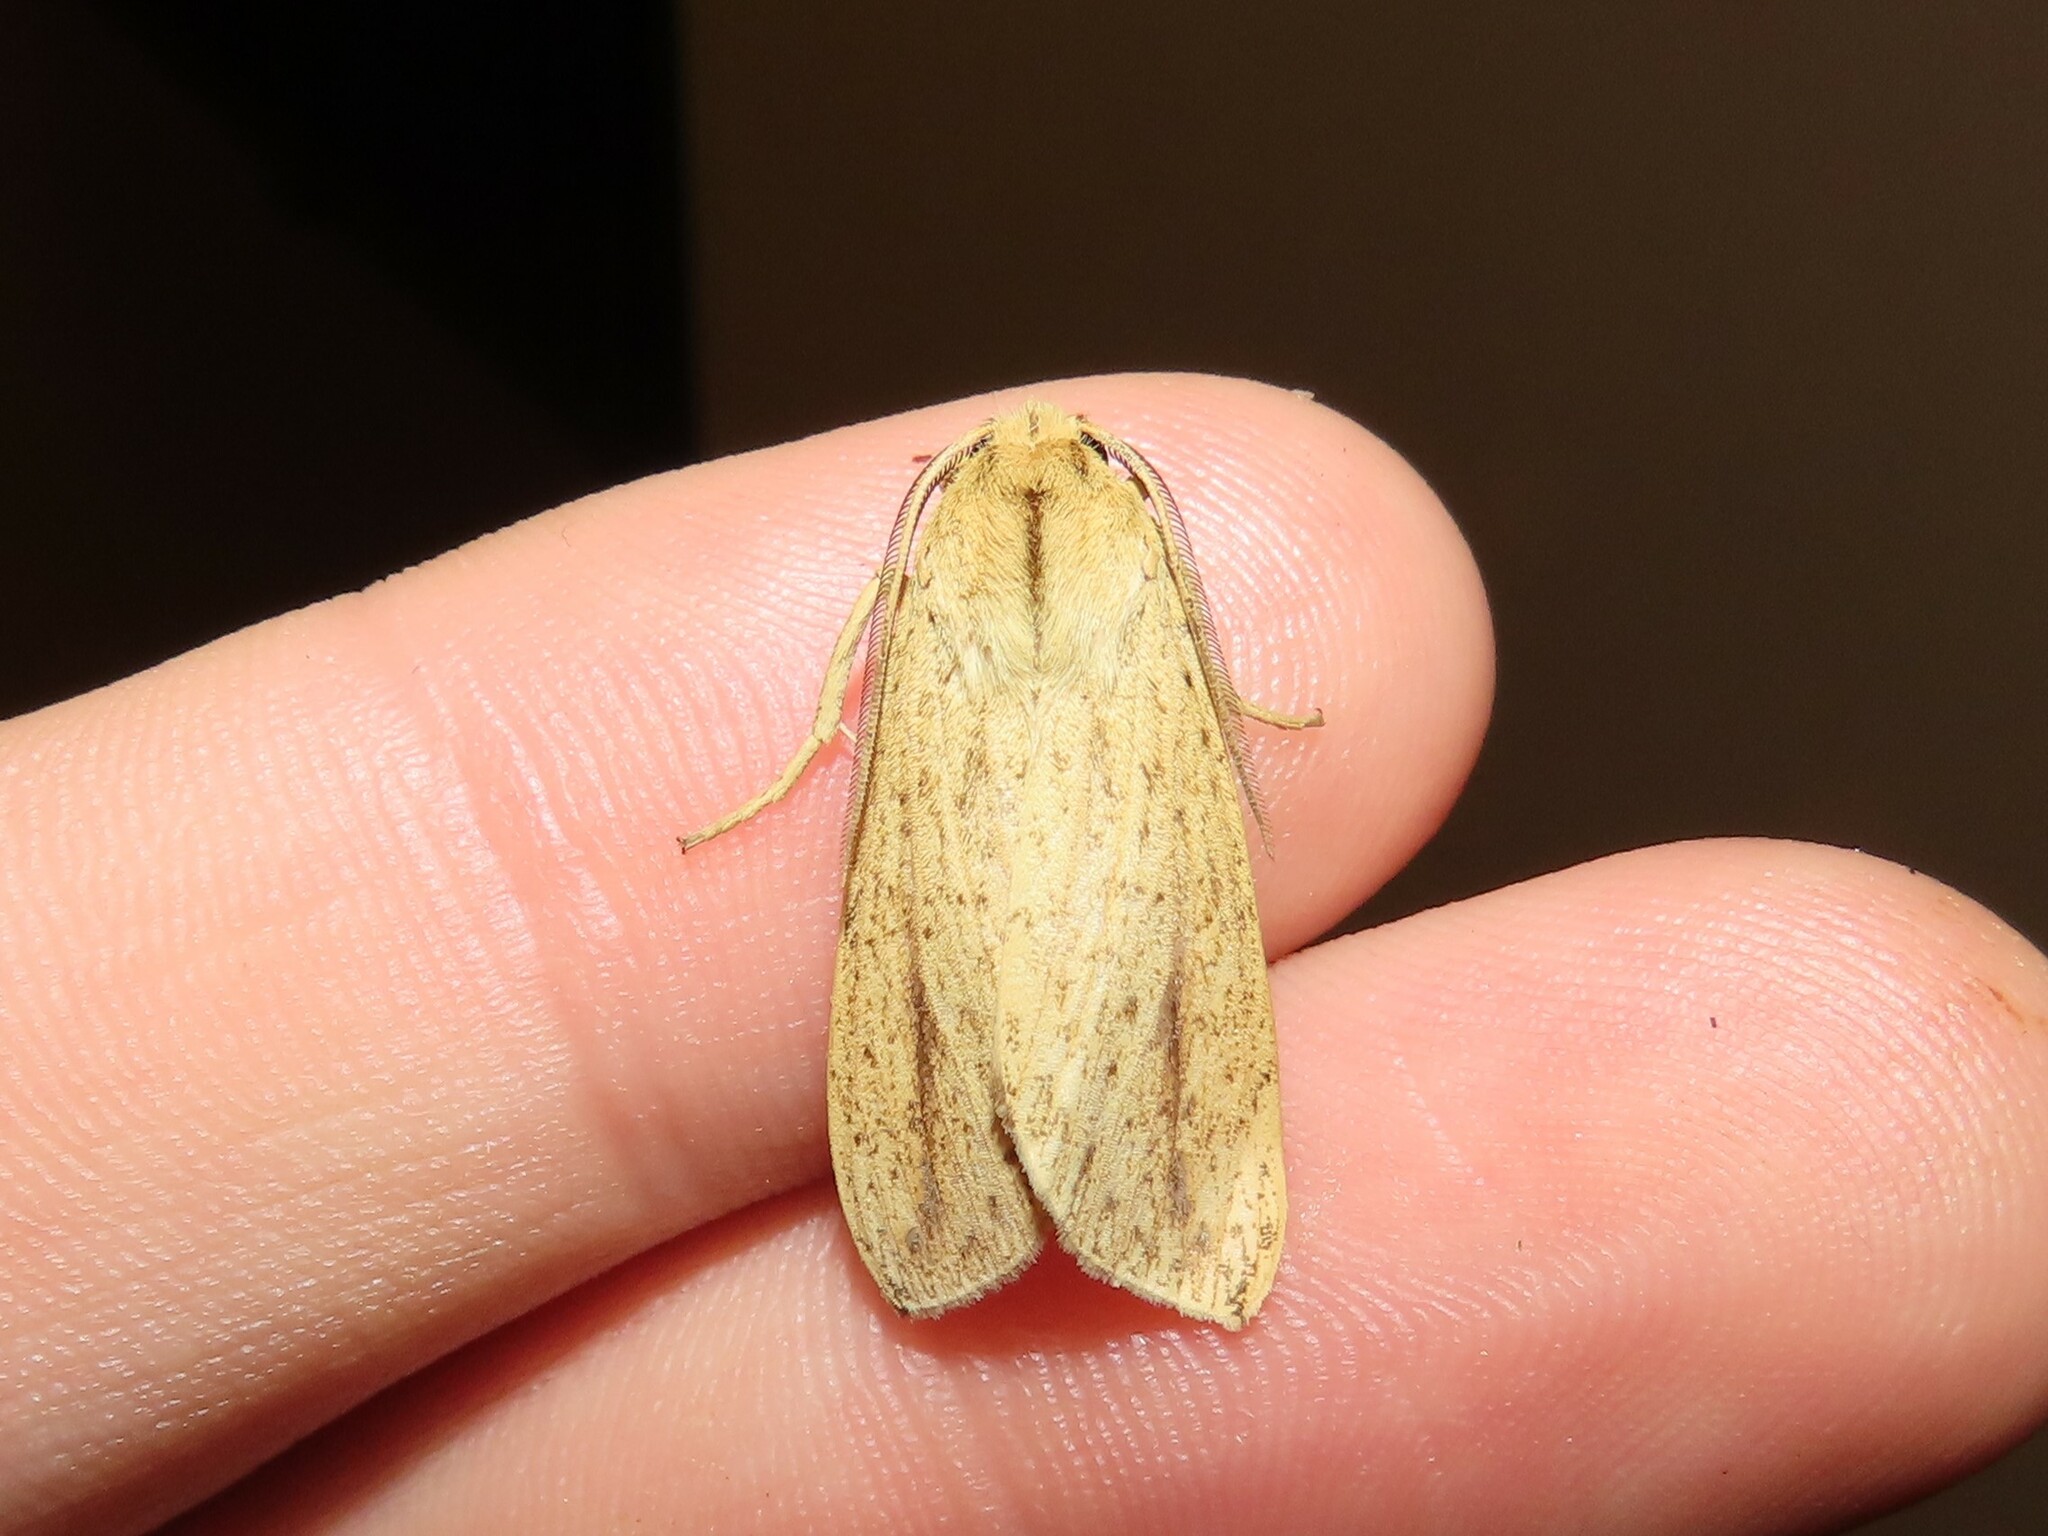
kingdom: Animalia
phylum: Arthropoda
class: Insecta
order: Lepidoptera
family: Erebidae
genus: Leucanopsis
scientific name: Leucanopsis longa
